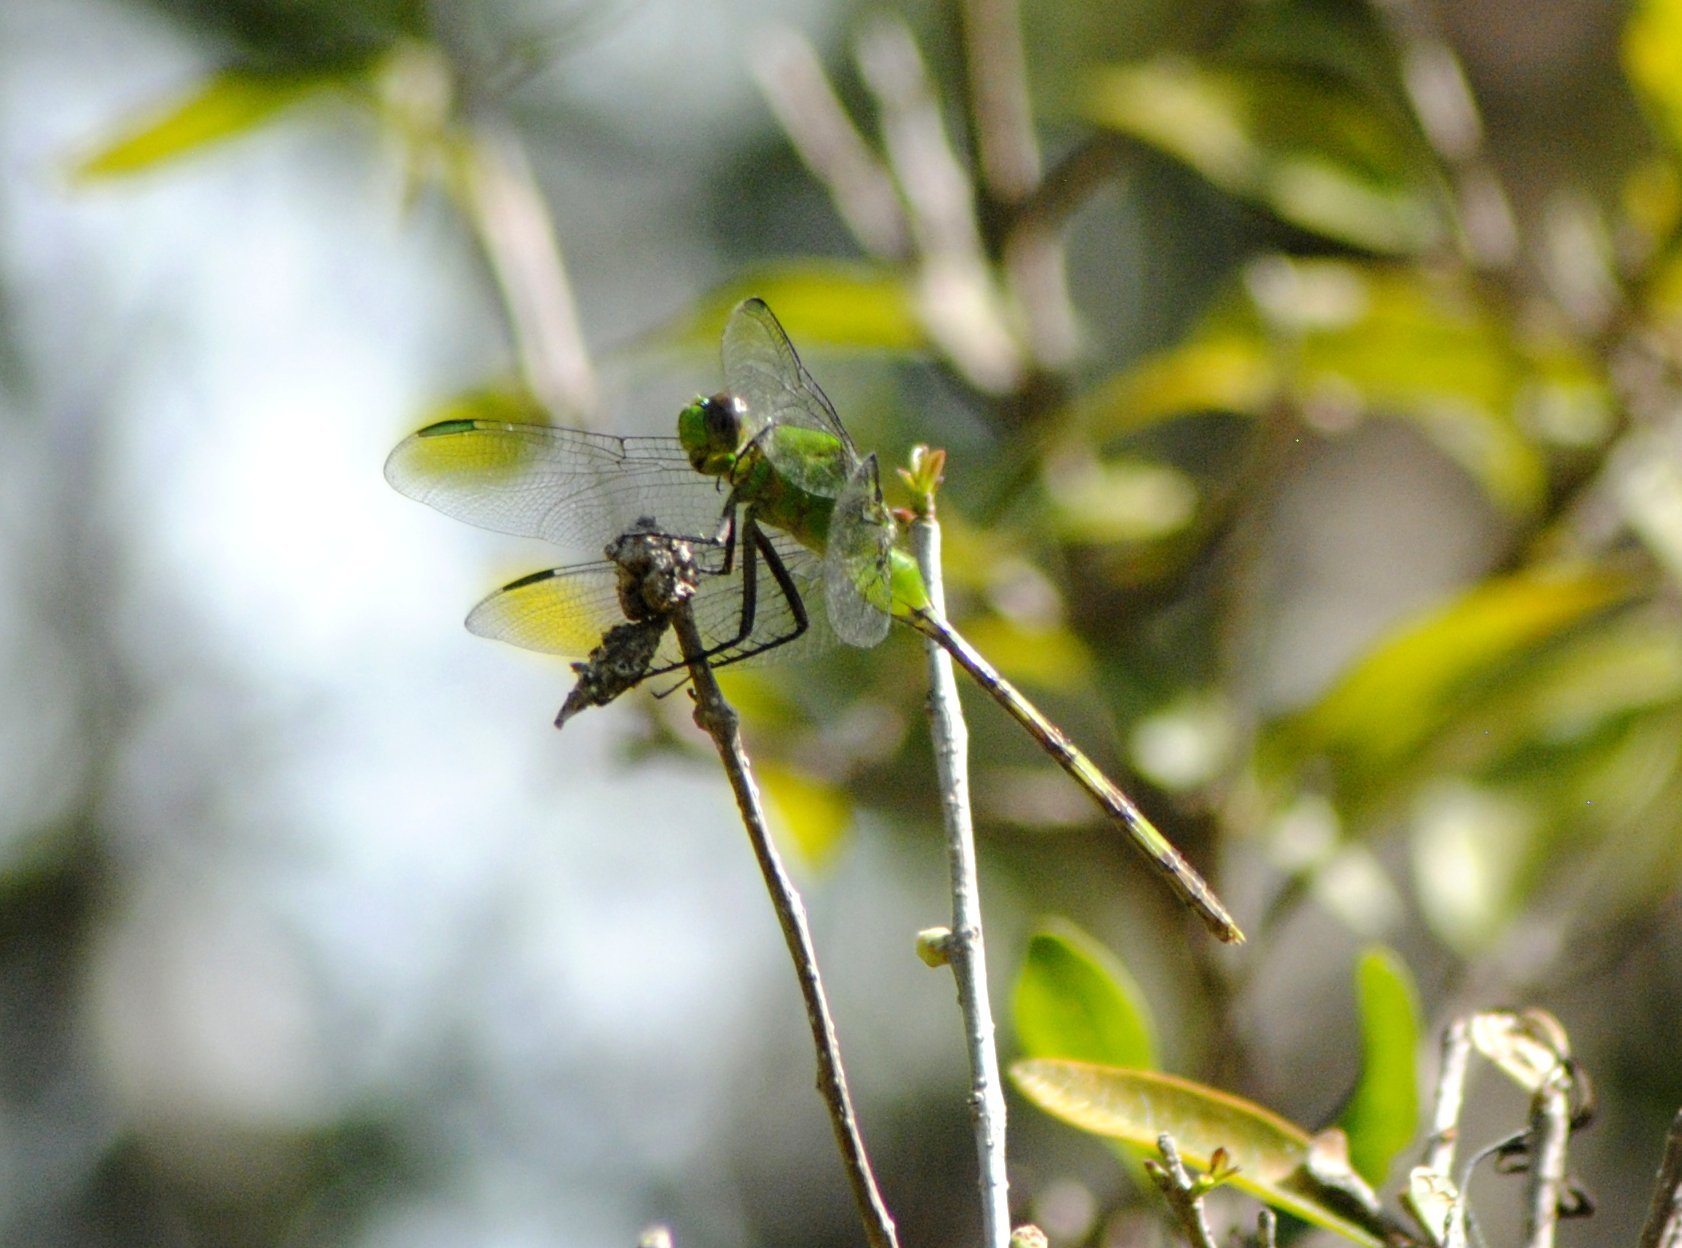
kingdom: Animalia
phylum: Arthropoda
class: Insecta
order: Odonata
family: Libellulidae
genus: Erythemis
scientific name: Erythemis vesiculosa
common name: Great pondhawk
